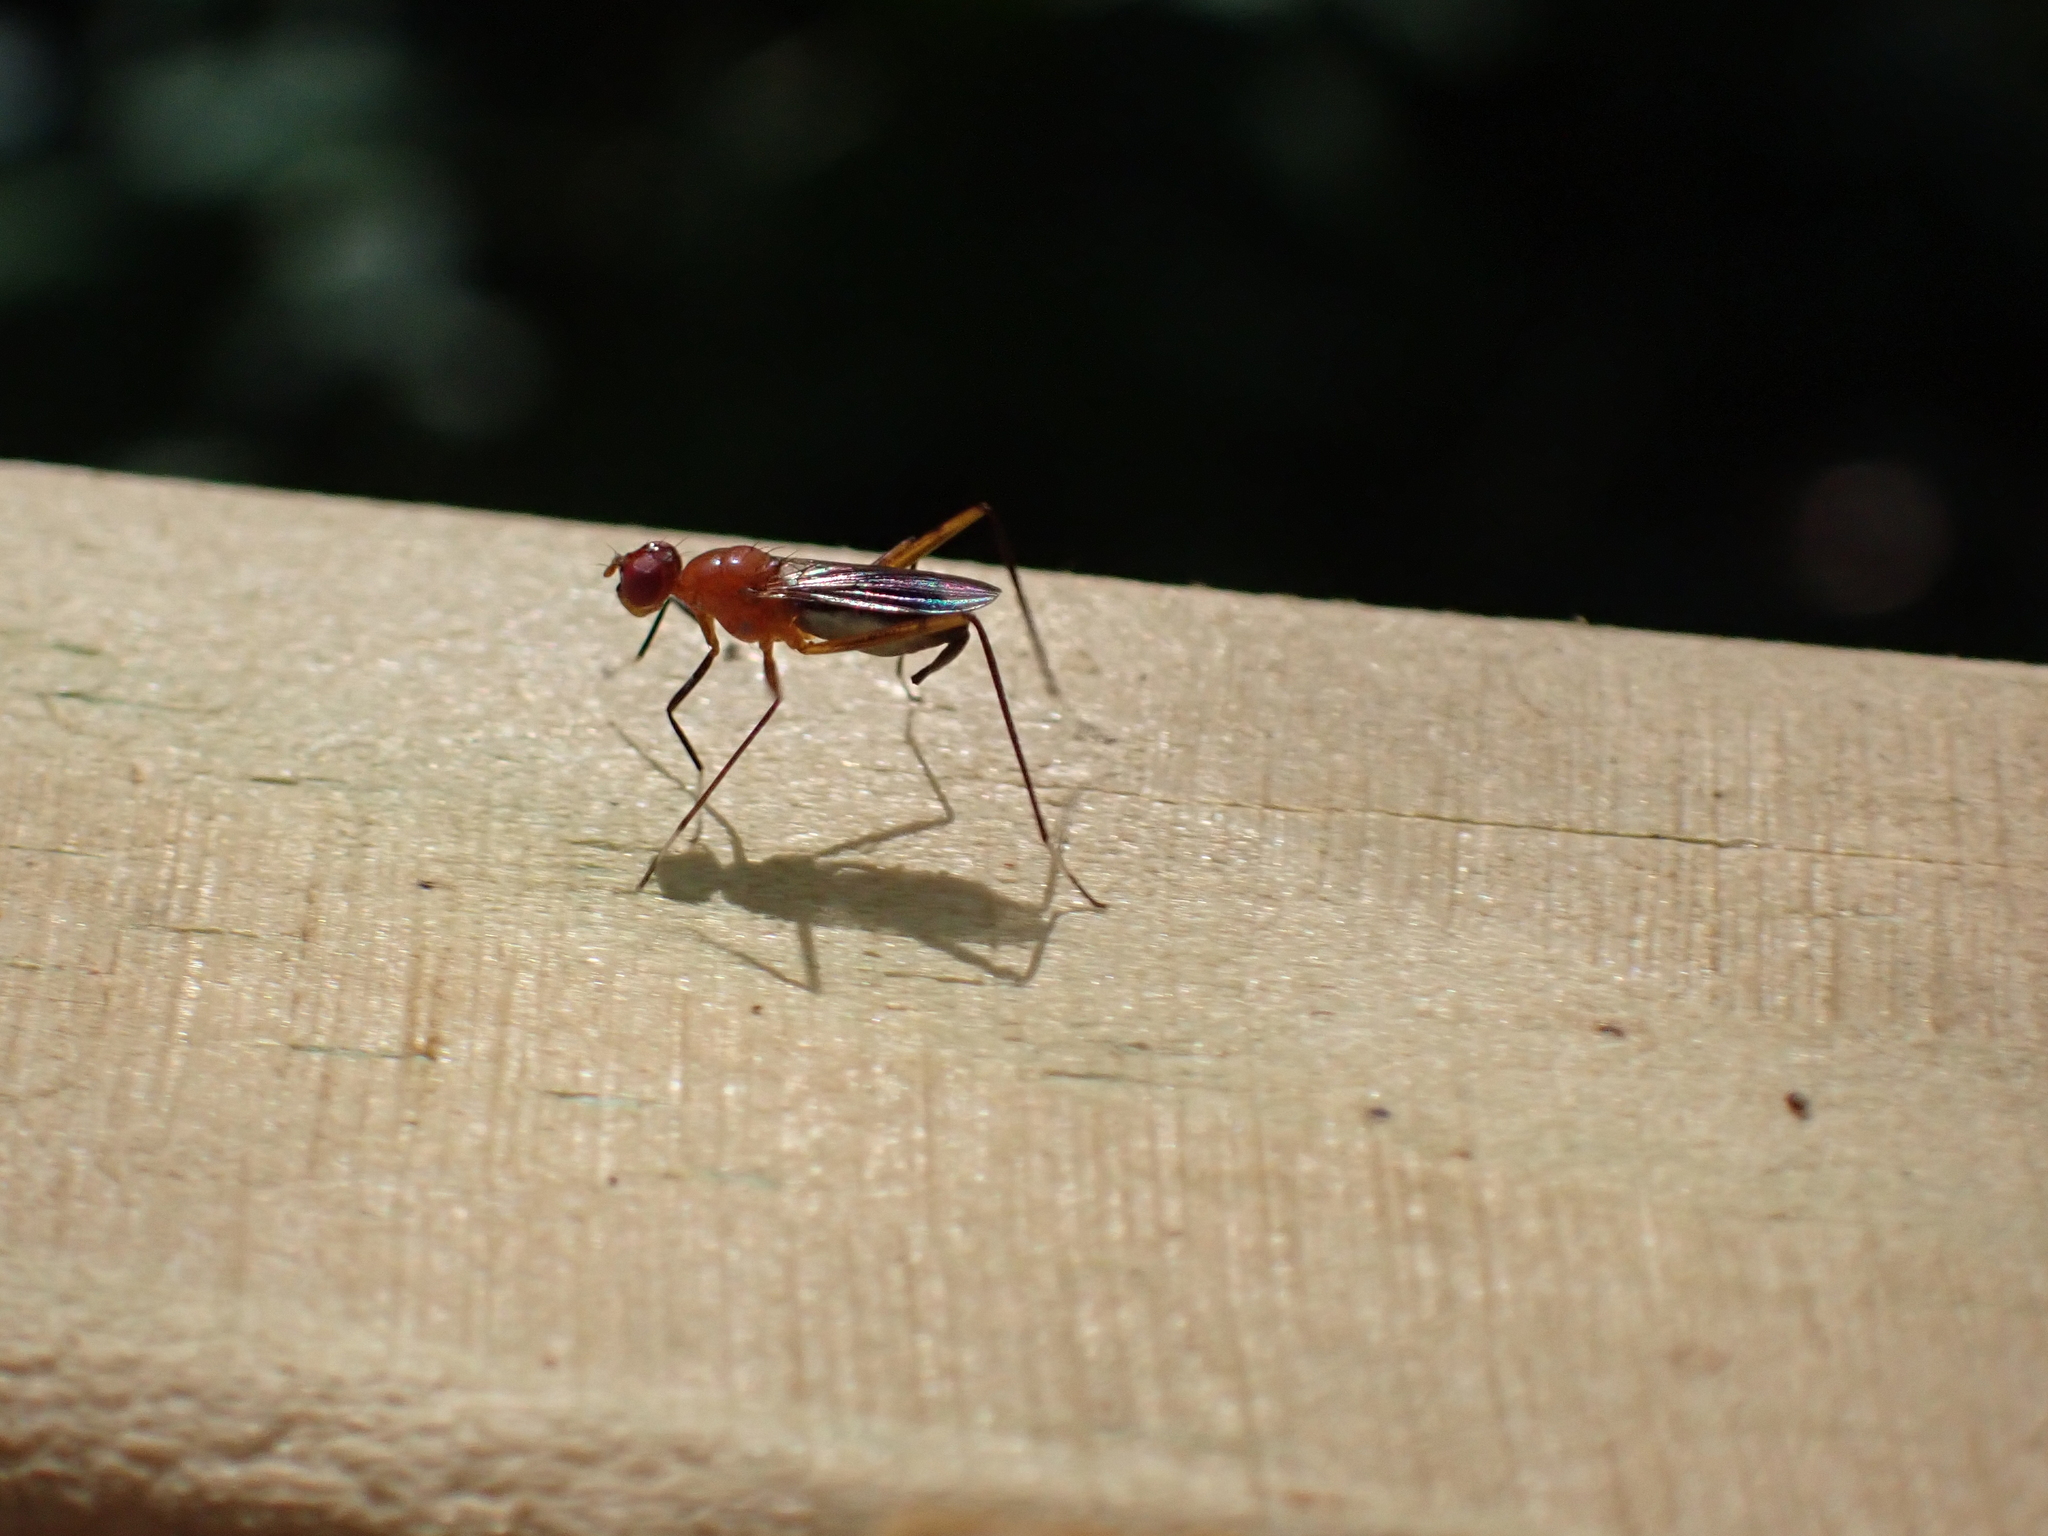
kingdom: Animalia
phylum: Arthropoda
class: Insecta
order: Diptera
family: Micropezidae
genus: Grallipeza
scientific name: Grallipeza nebulosa
